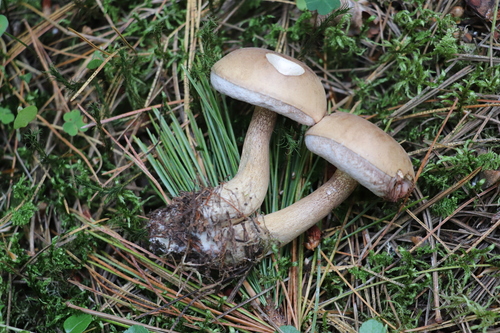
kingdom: Fungi
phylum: Basidiomycota
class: Agaricomycetes
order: Boletales
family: Boletaceae
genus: Tylopilus
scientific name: Tylopilus felleus
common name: Bitter bolete
